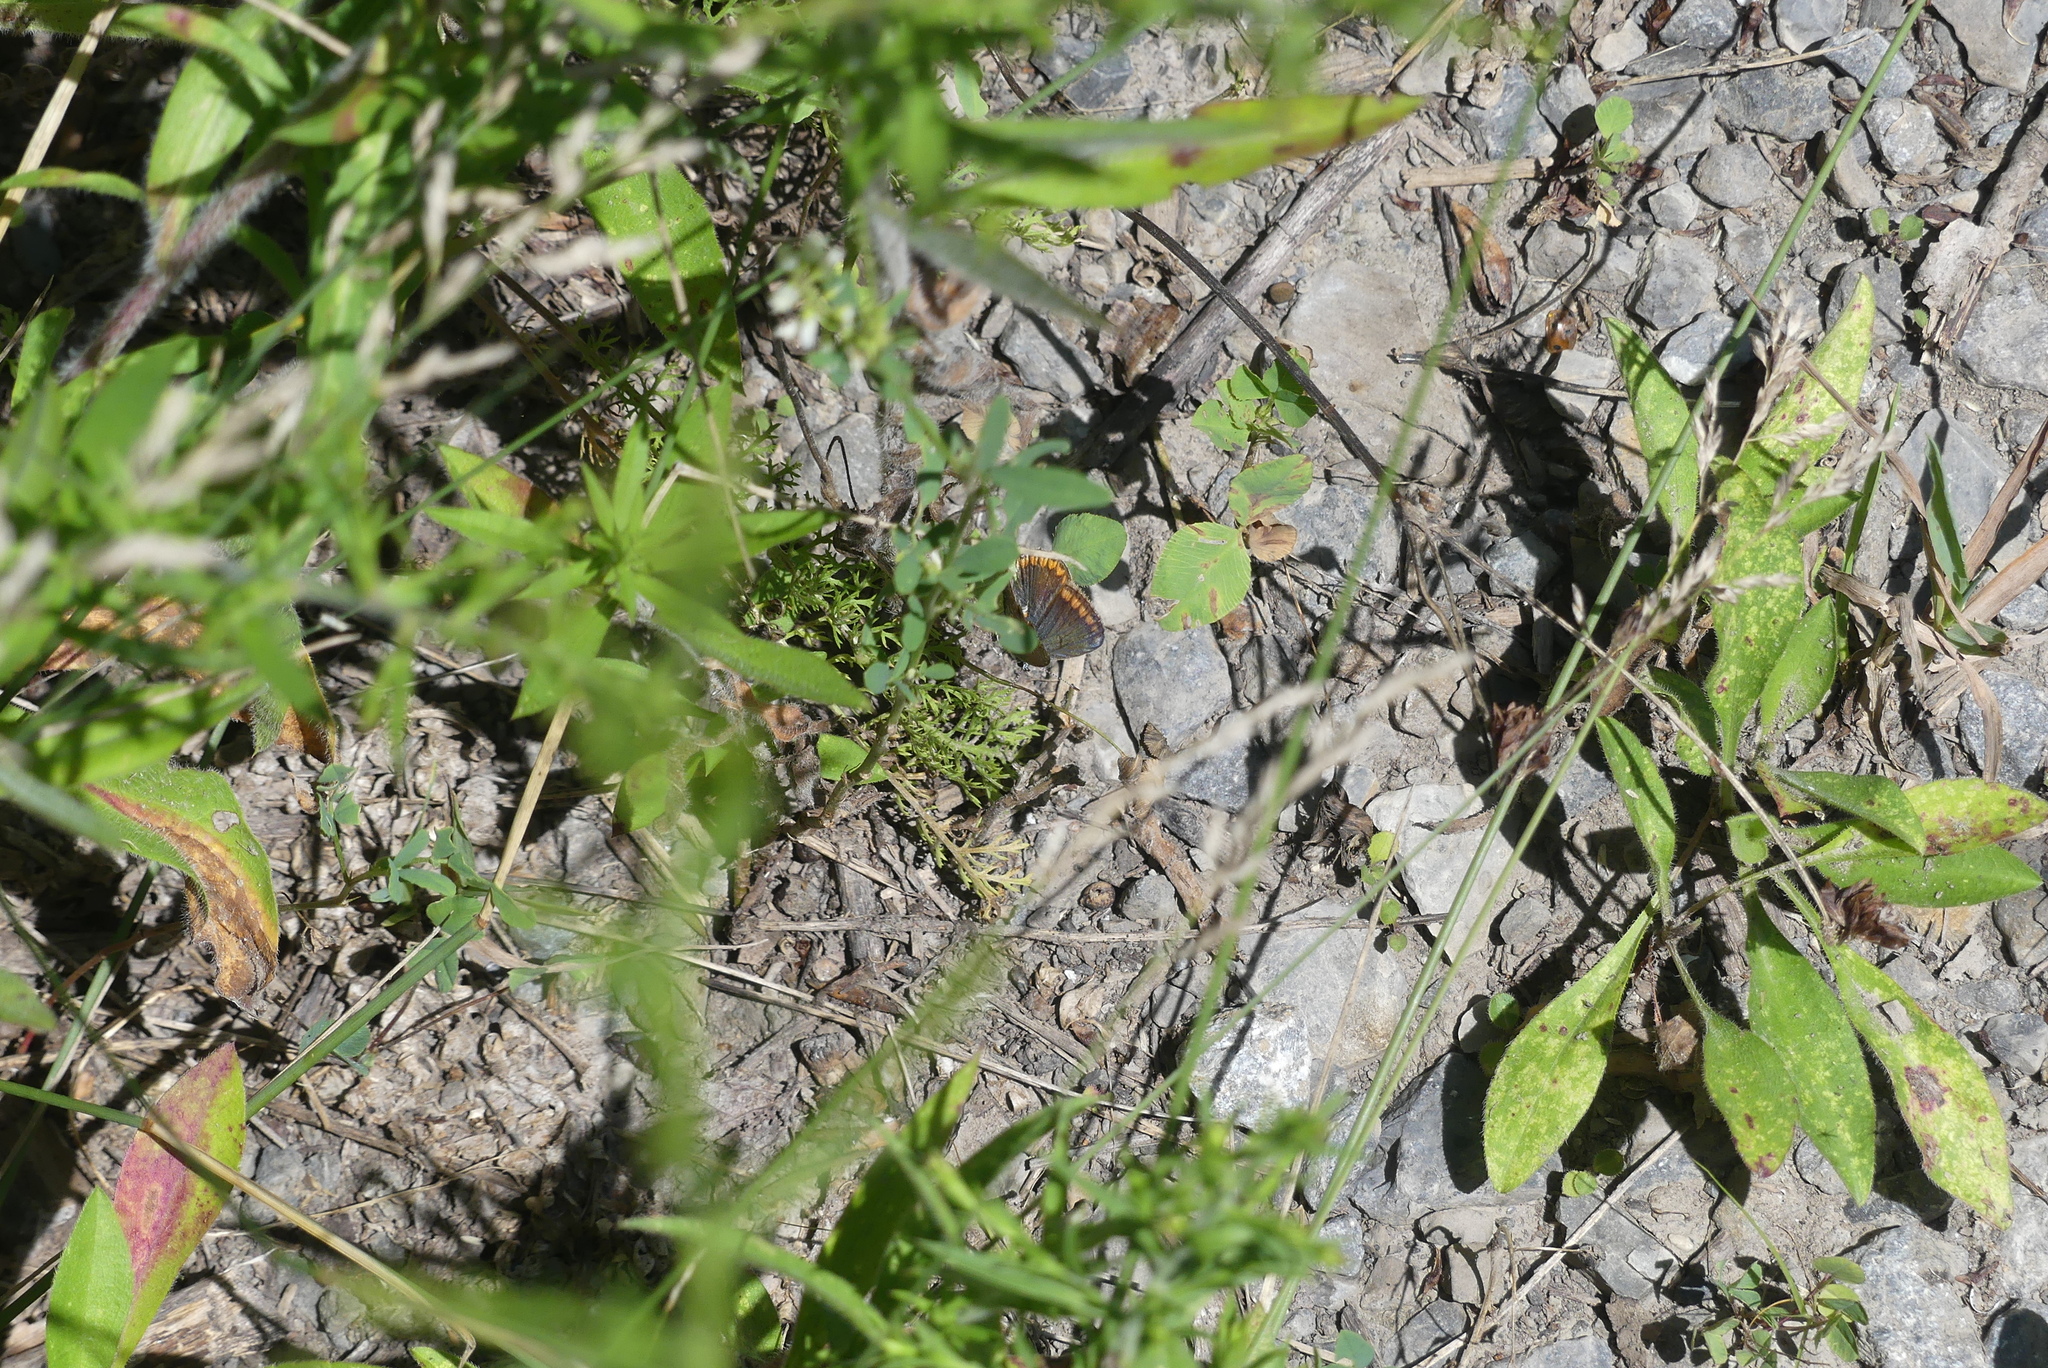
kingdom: Animalia
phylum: Arthropoda
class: Insecta
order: Lepidoptera
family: Lycaenidae
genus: Polyommatus
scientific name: Polyommatus icarus
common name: Common blue
